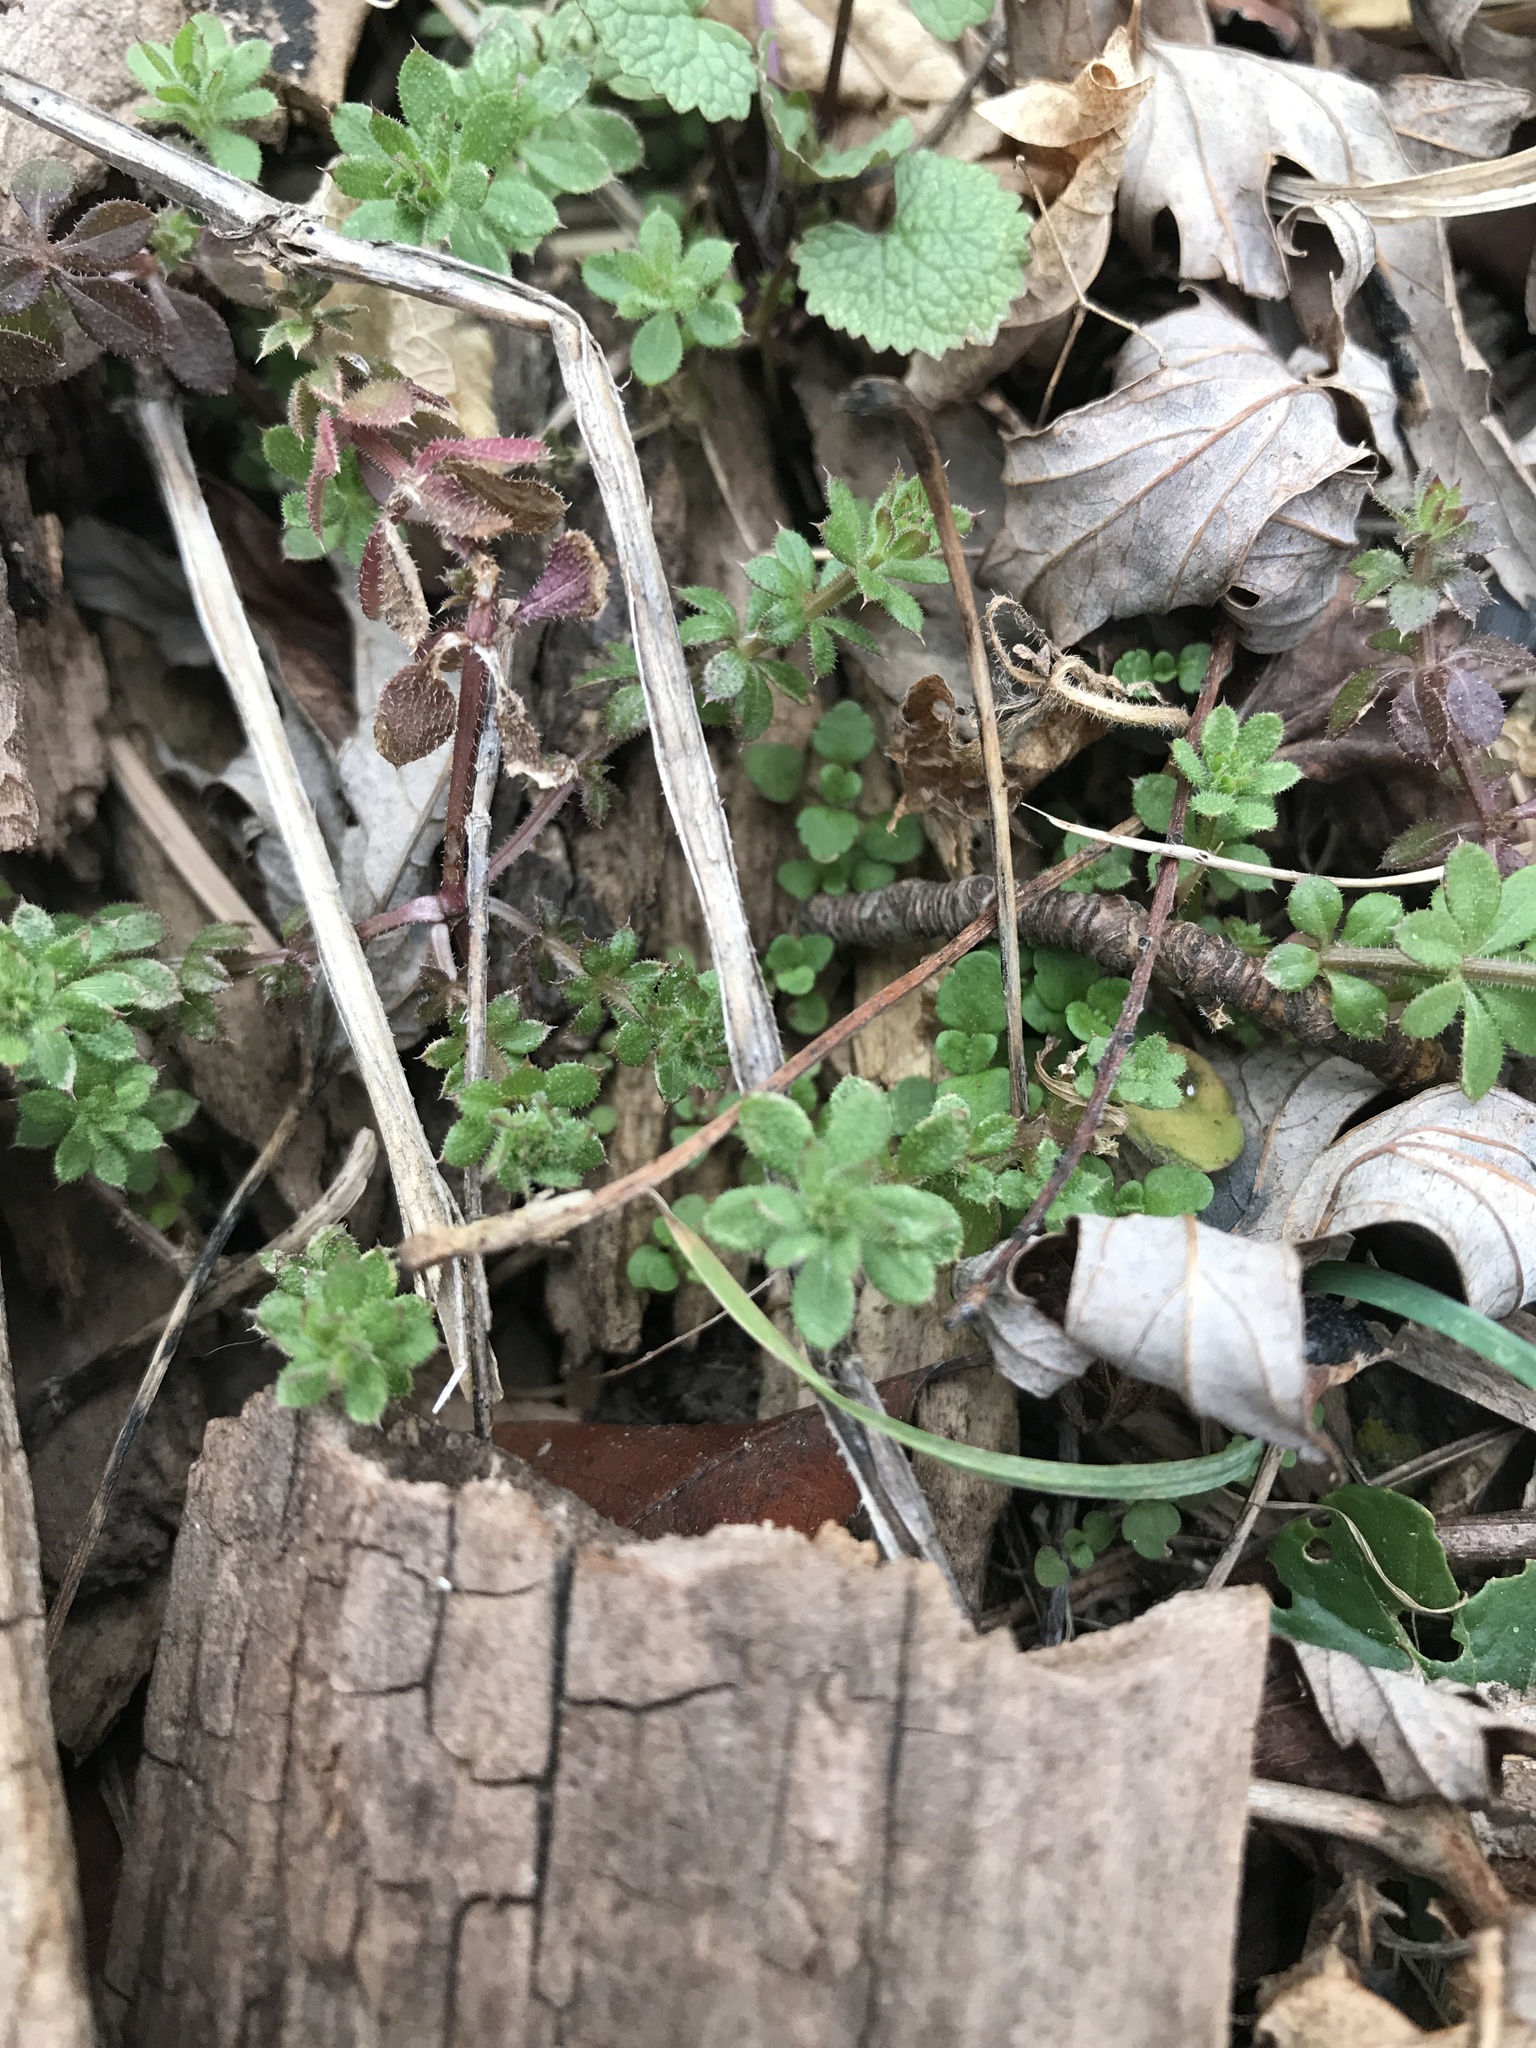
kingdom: Plantae
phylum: Tracheophyta
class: Magnoliopsida
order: Gentianales
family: Rubiaceae
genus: Galium
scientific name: Galium aparine
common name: Cleavers
